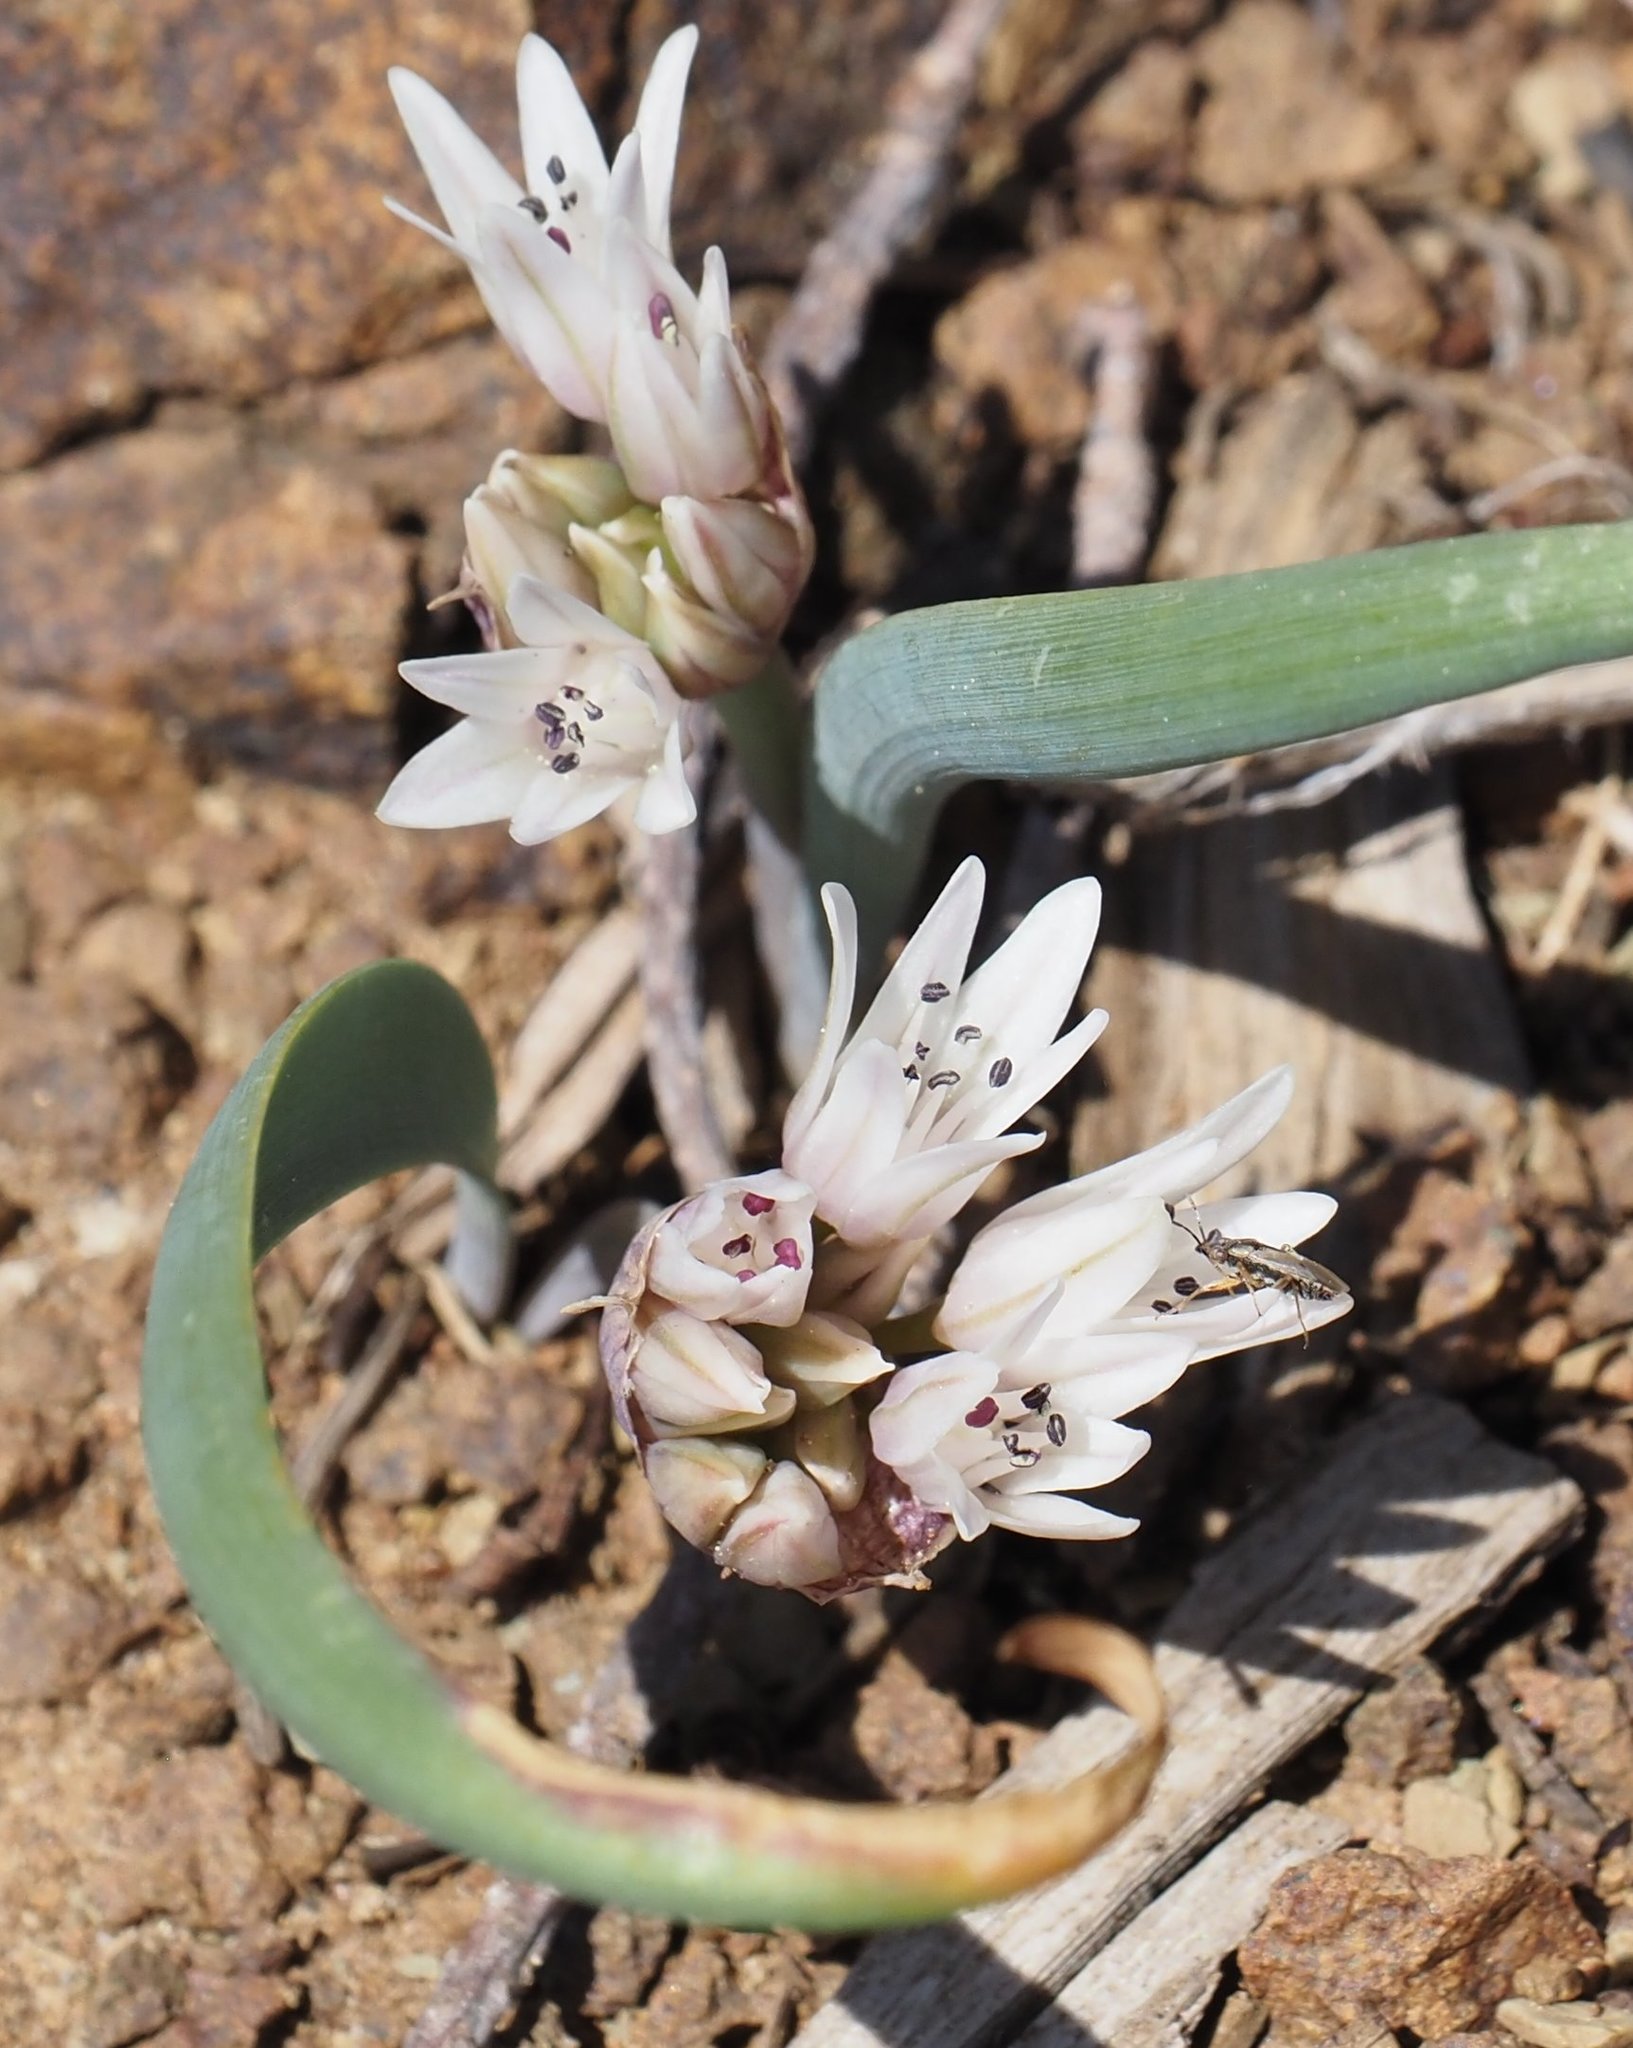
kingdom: Plantae
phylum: Tracheophyta
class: Liliopsida
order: Asparagales
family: Amaryllidaceae
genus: Allium
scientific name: Allium crenulatum
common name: Olympic onion
